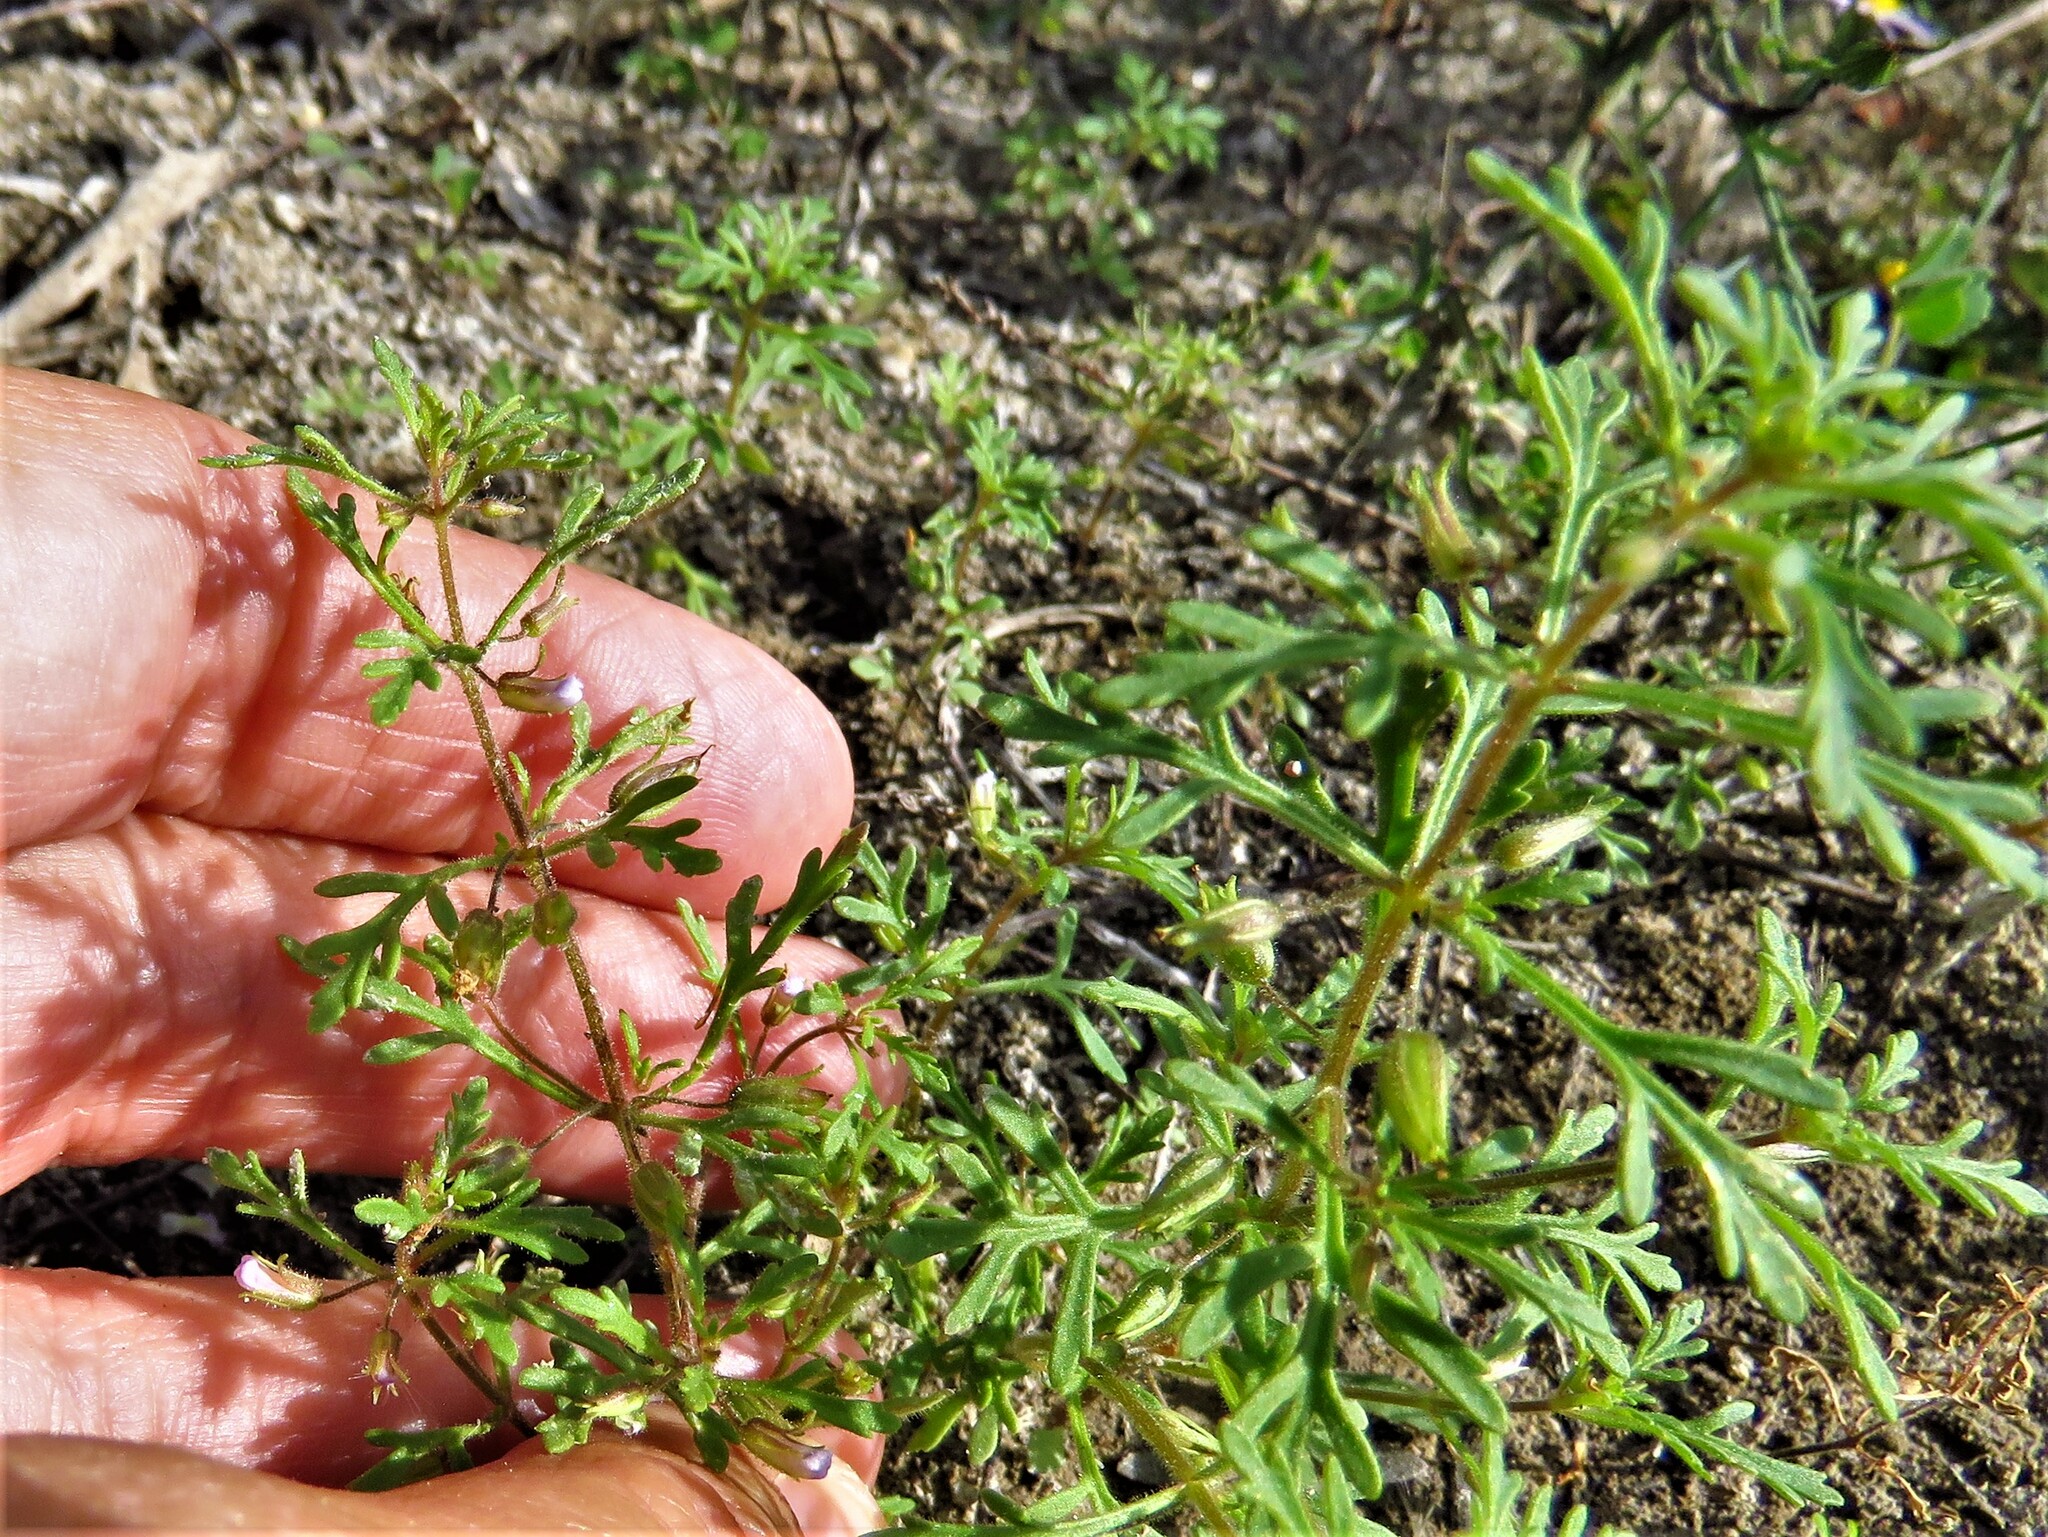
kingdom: Plantae
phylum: Tracheophyta
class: Magnoliopsida
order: Lamiales
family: Plantaginaceae
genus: Leucospora
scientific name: Leucospora multifida
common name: Narrow-leaf paleseed
